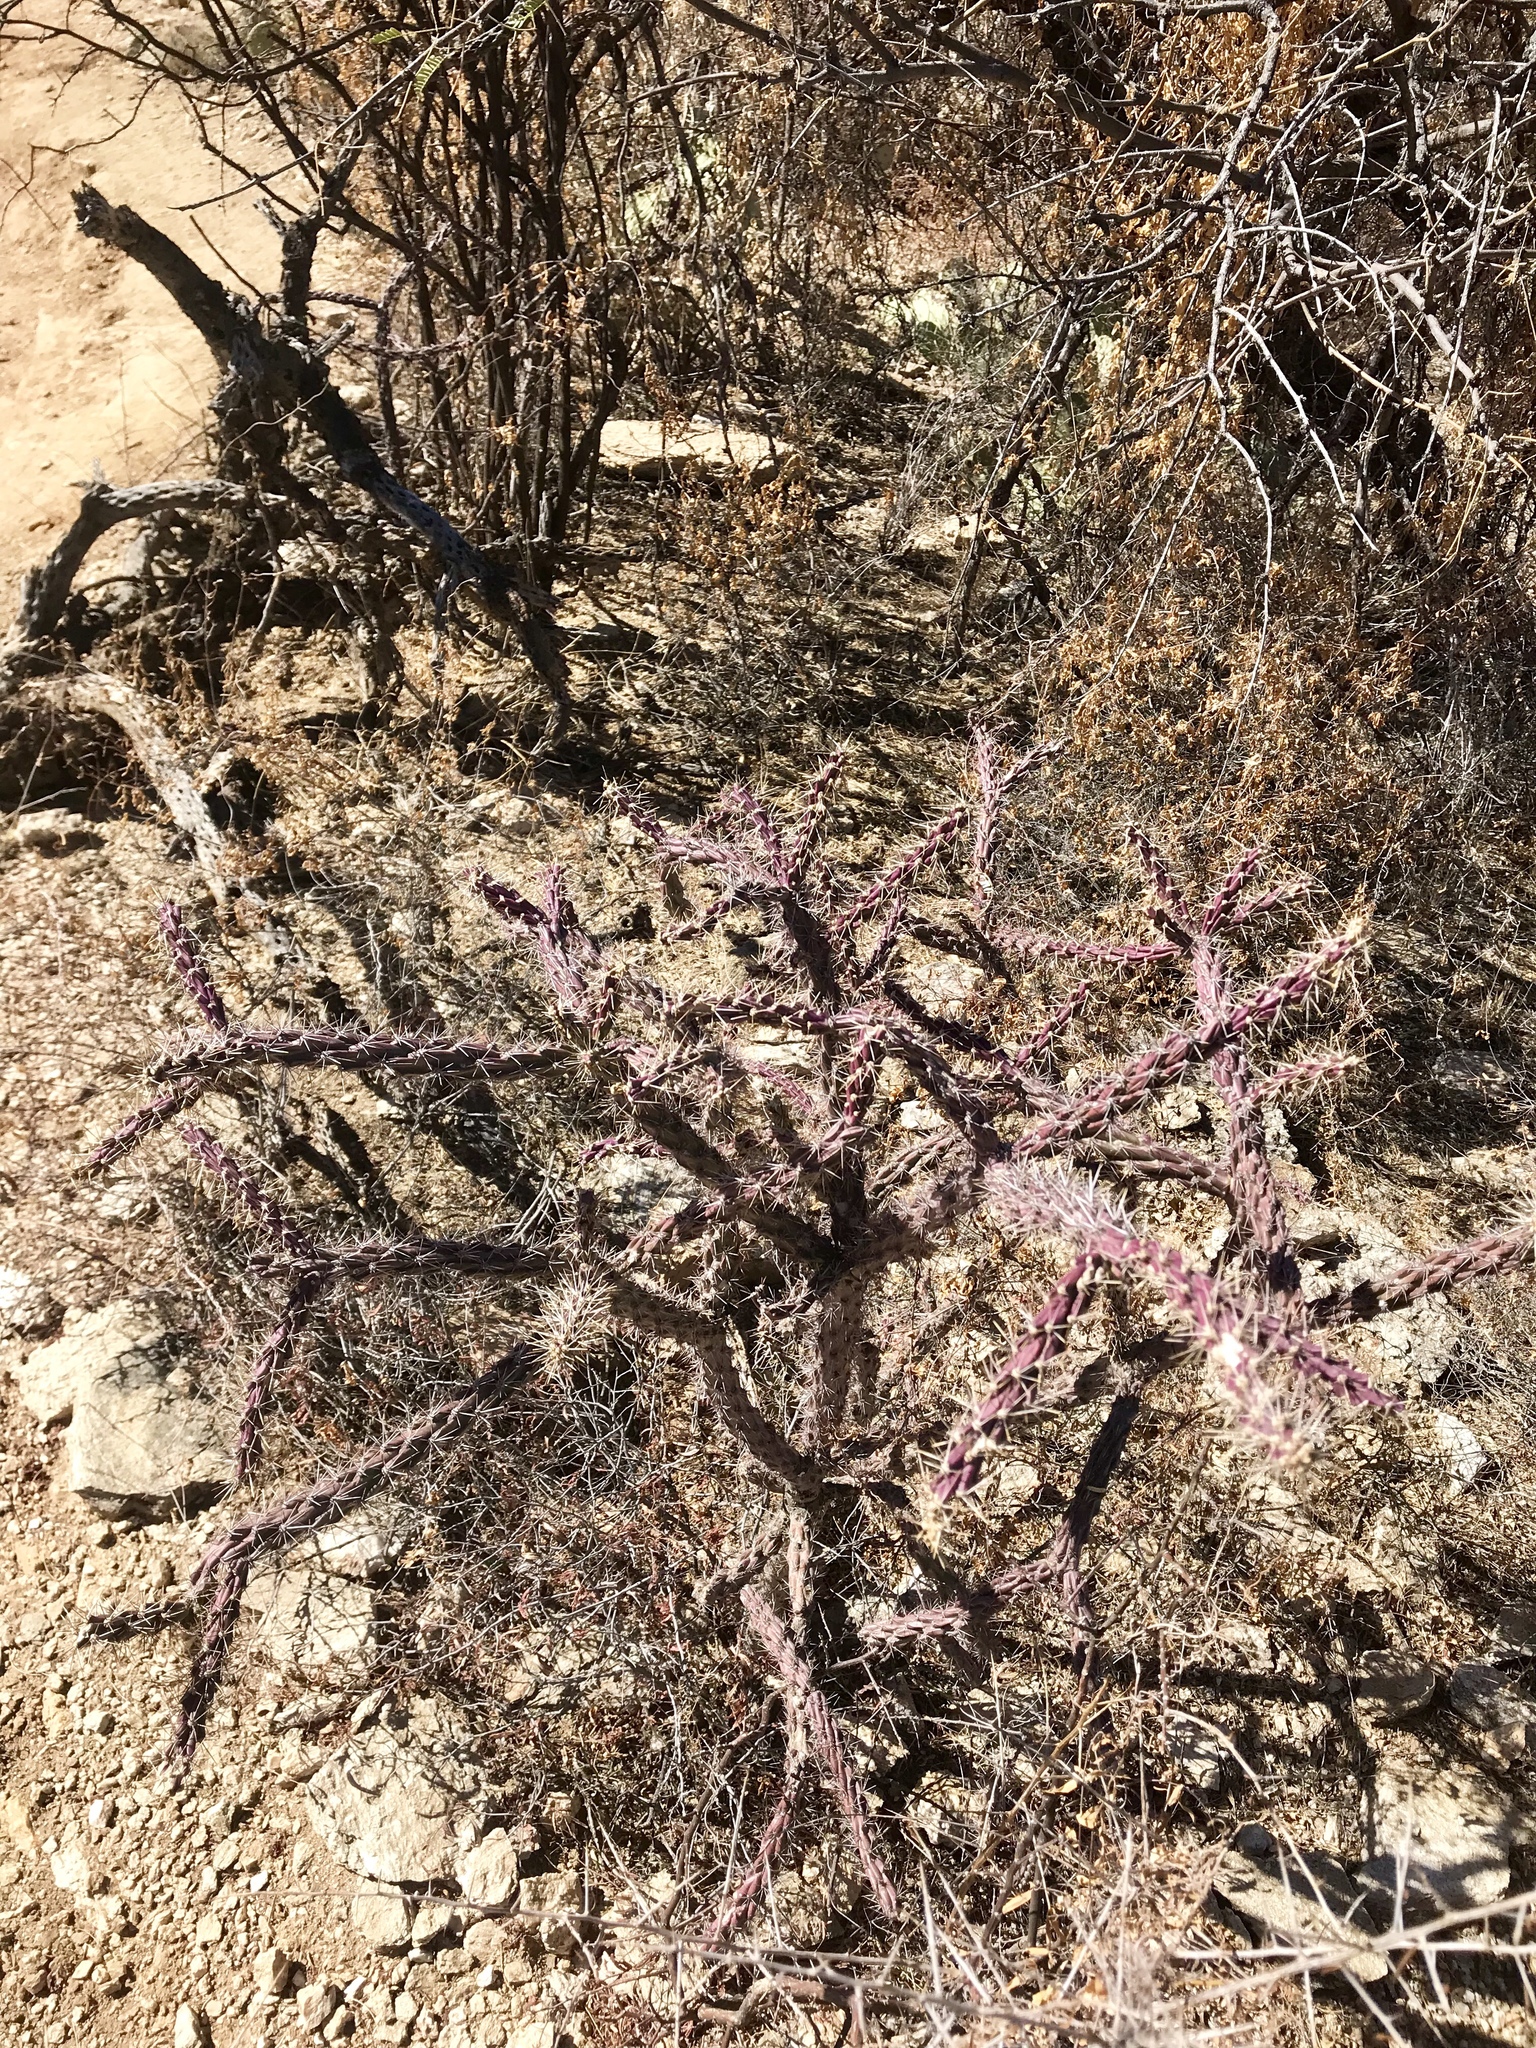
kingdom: Plantae
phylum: Tracheophyta
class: Magnoliopsida
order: Caryophyllales
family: Cactaceae
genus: Cylindropuntia
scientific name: Cylindropuntia thurberi
